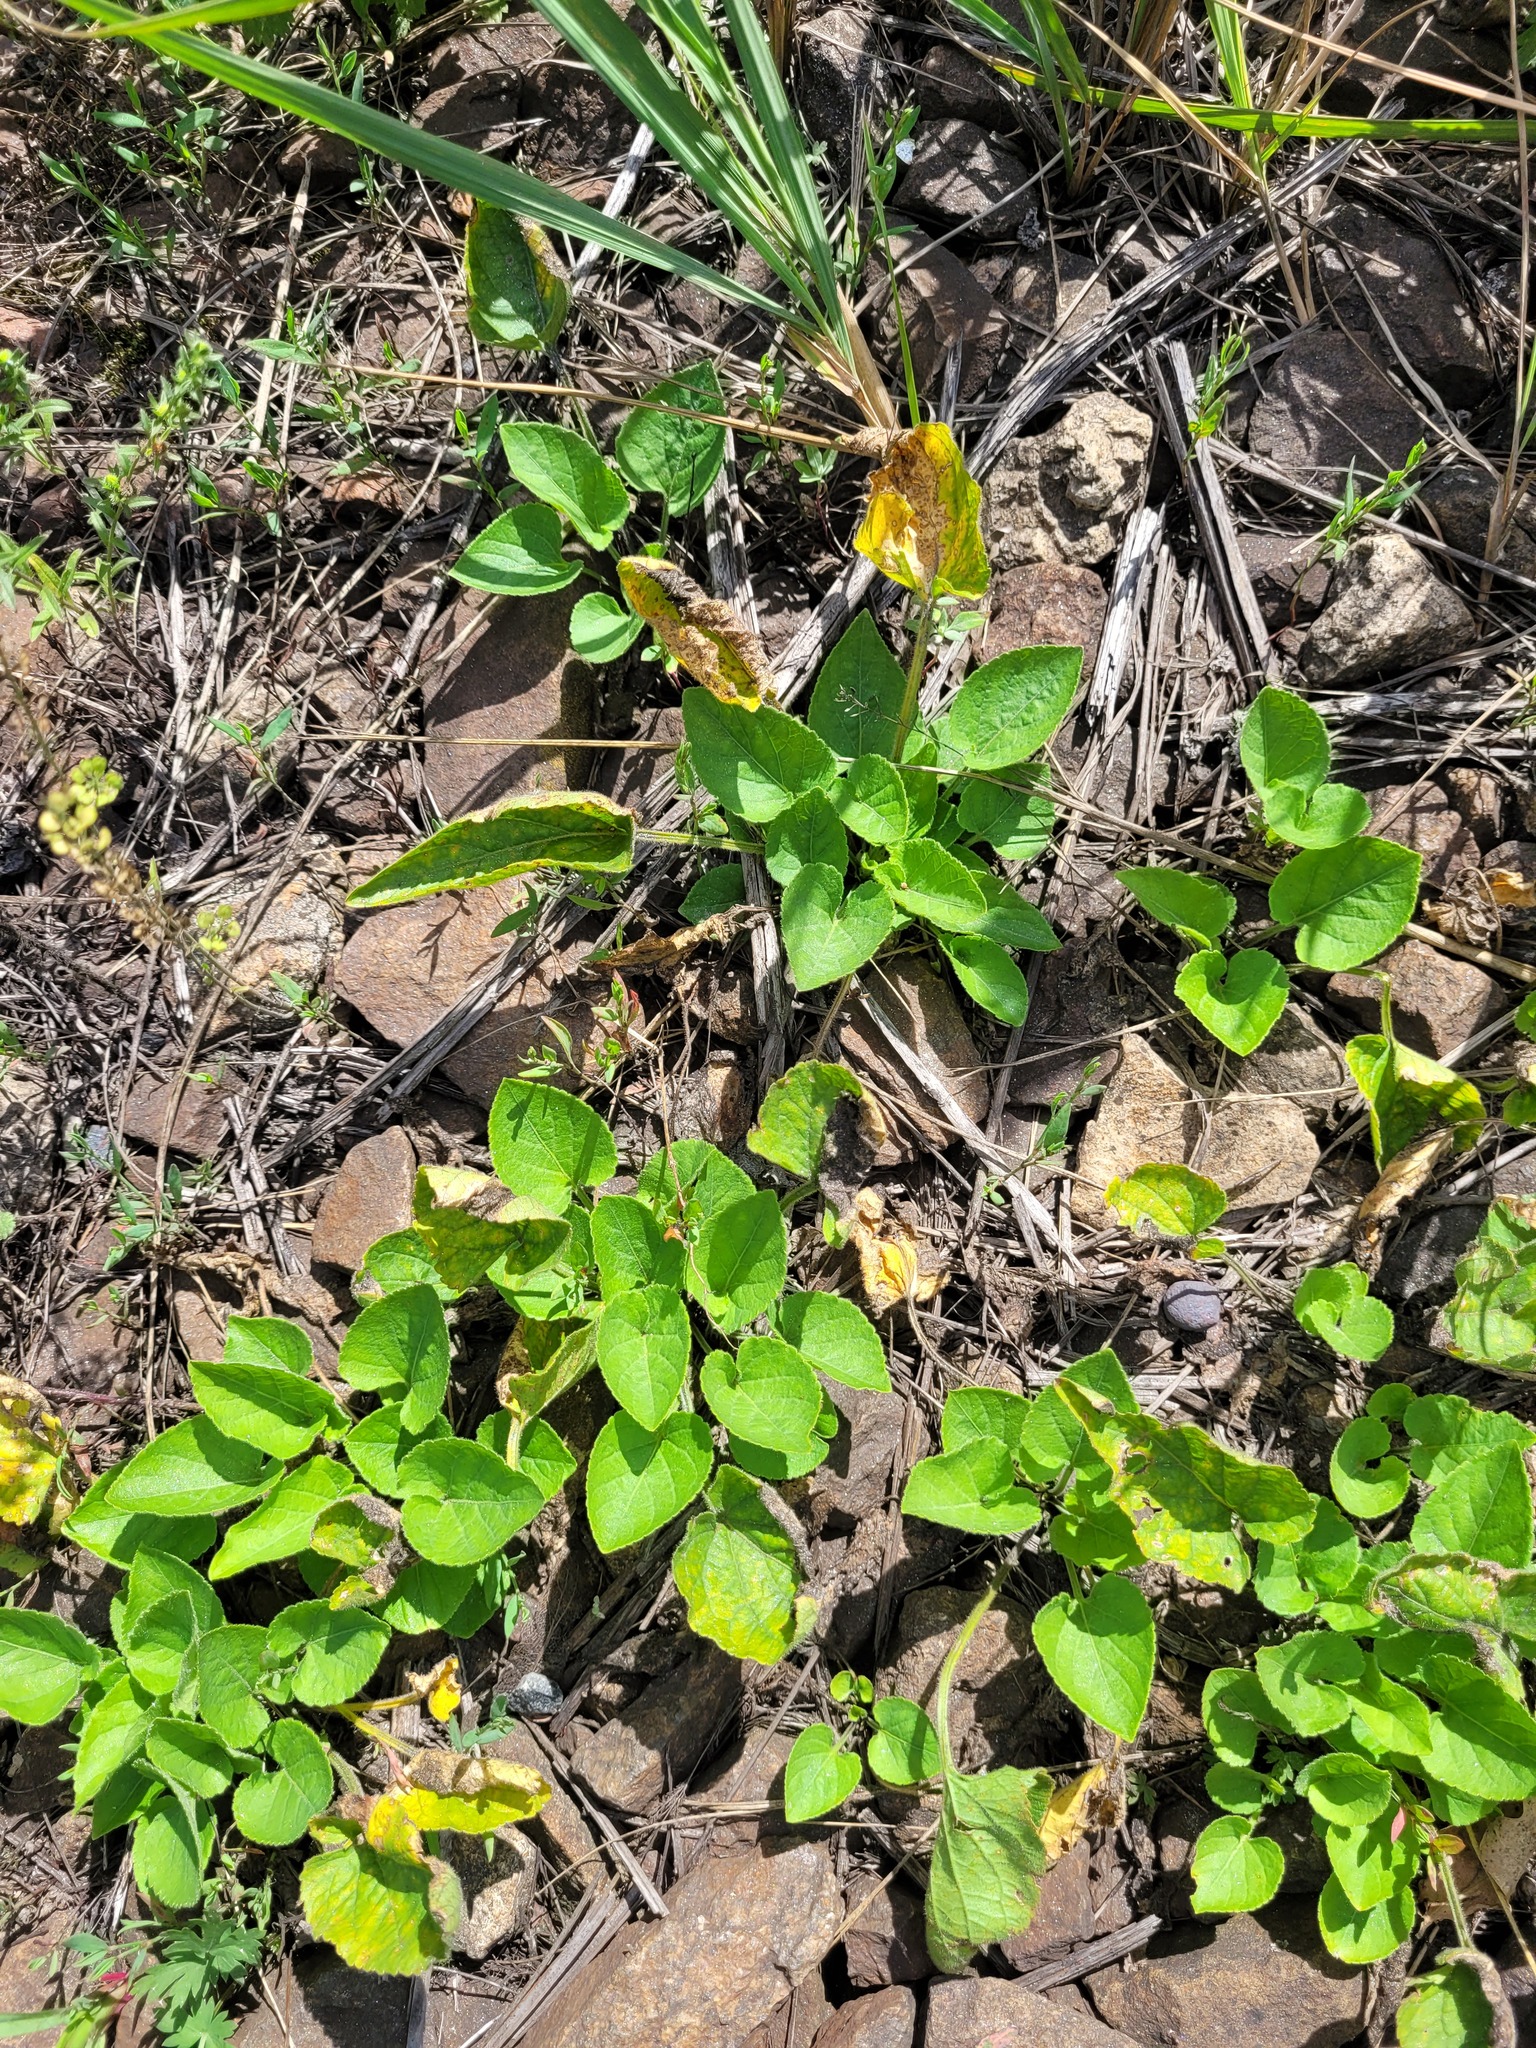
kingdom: Plantae
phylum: Tracheophyta
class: Magnoliopsida
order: Malpighiales
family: Violaceae
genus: Viola
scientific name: Viola collina
